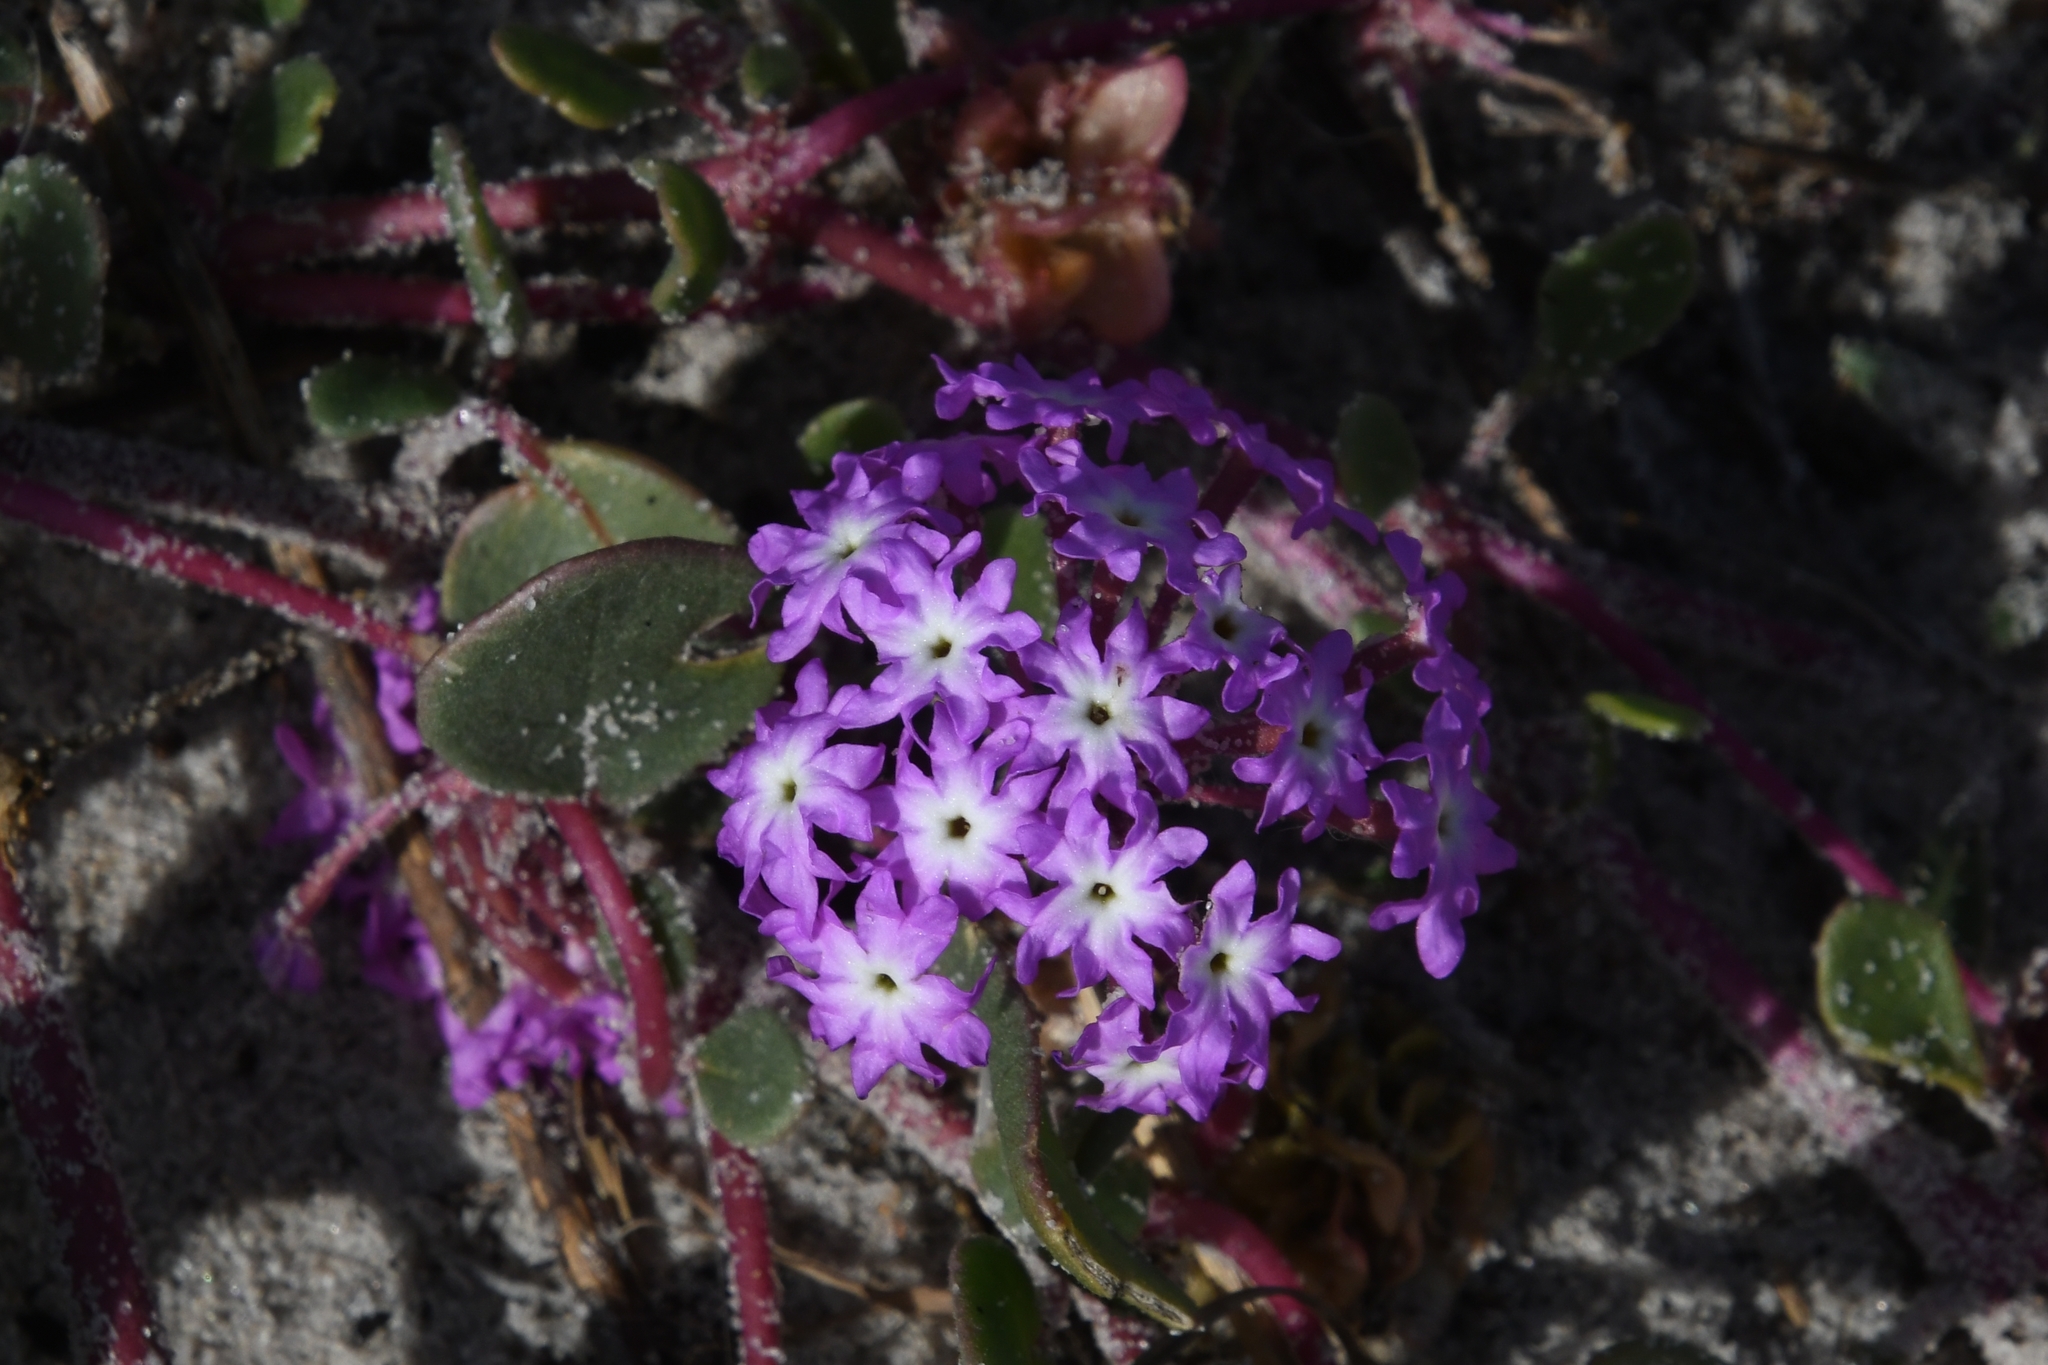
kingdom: Plantae
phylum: Tracheophyta
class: Magnoliopsida
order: Caryophyllales
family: Nyctaginaceae
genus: Abronia
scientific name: Abronia umbellata
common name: Sand-verbena
